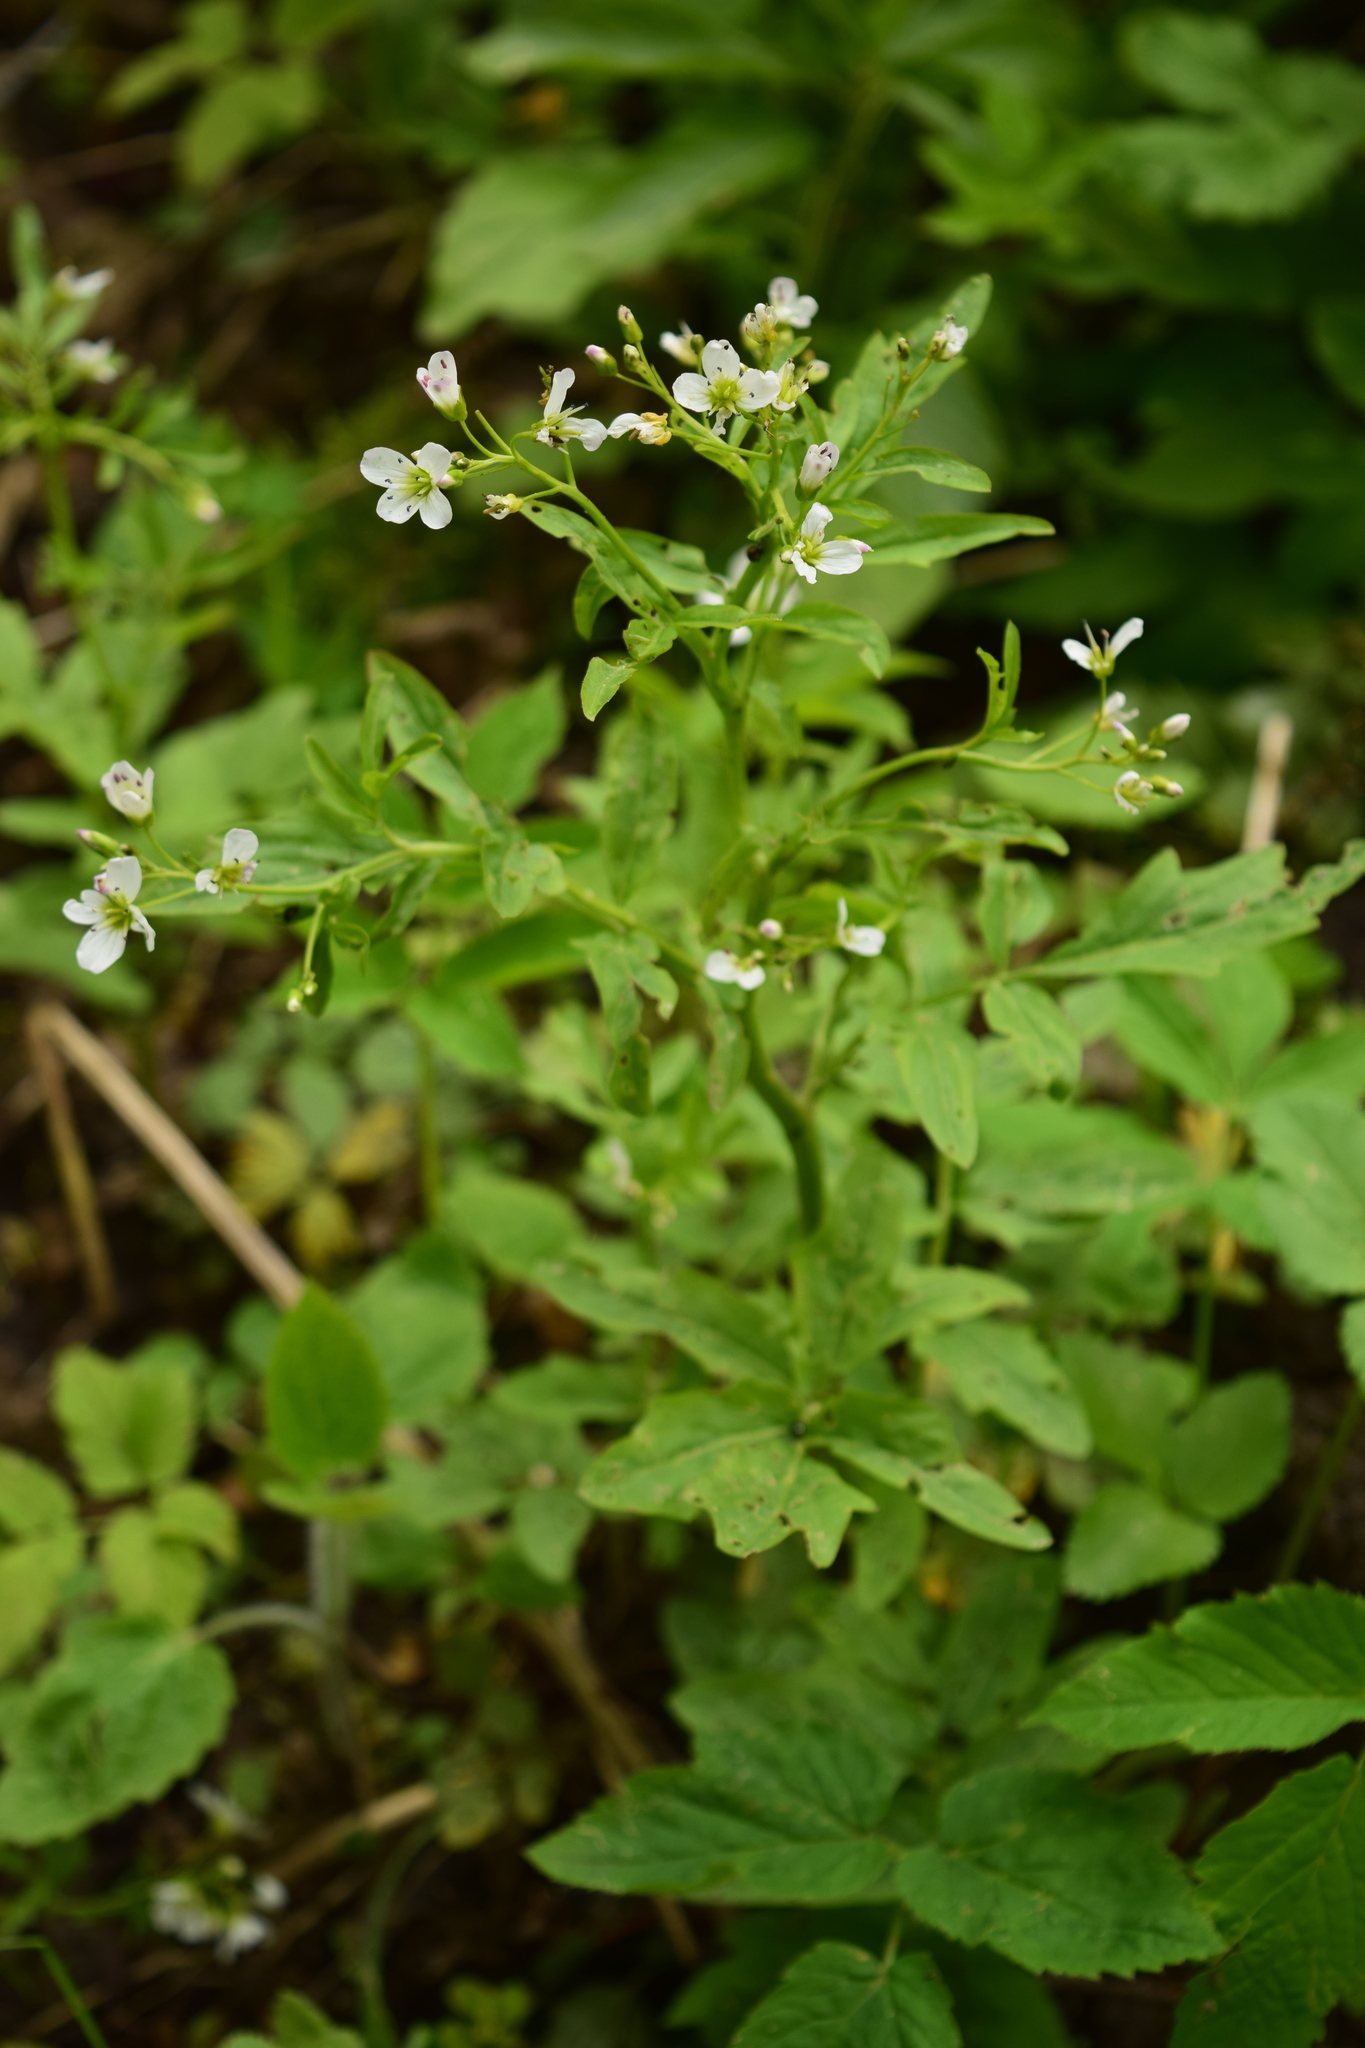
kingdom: Plantae
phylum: Tracheophyta
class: Magnoliopsida
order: Brassicales
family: Brassicaceae
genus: Cardamine
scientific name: Cardamine amara
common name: Large bitter-cress
